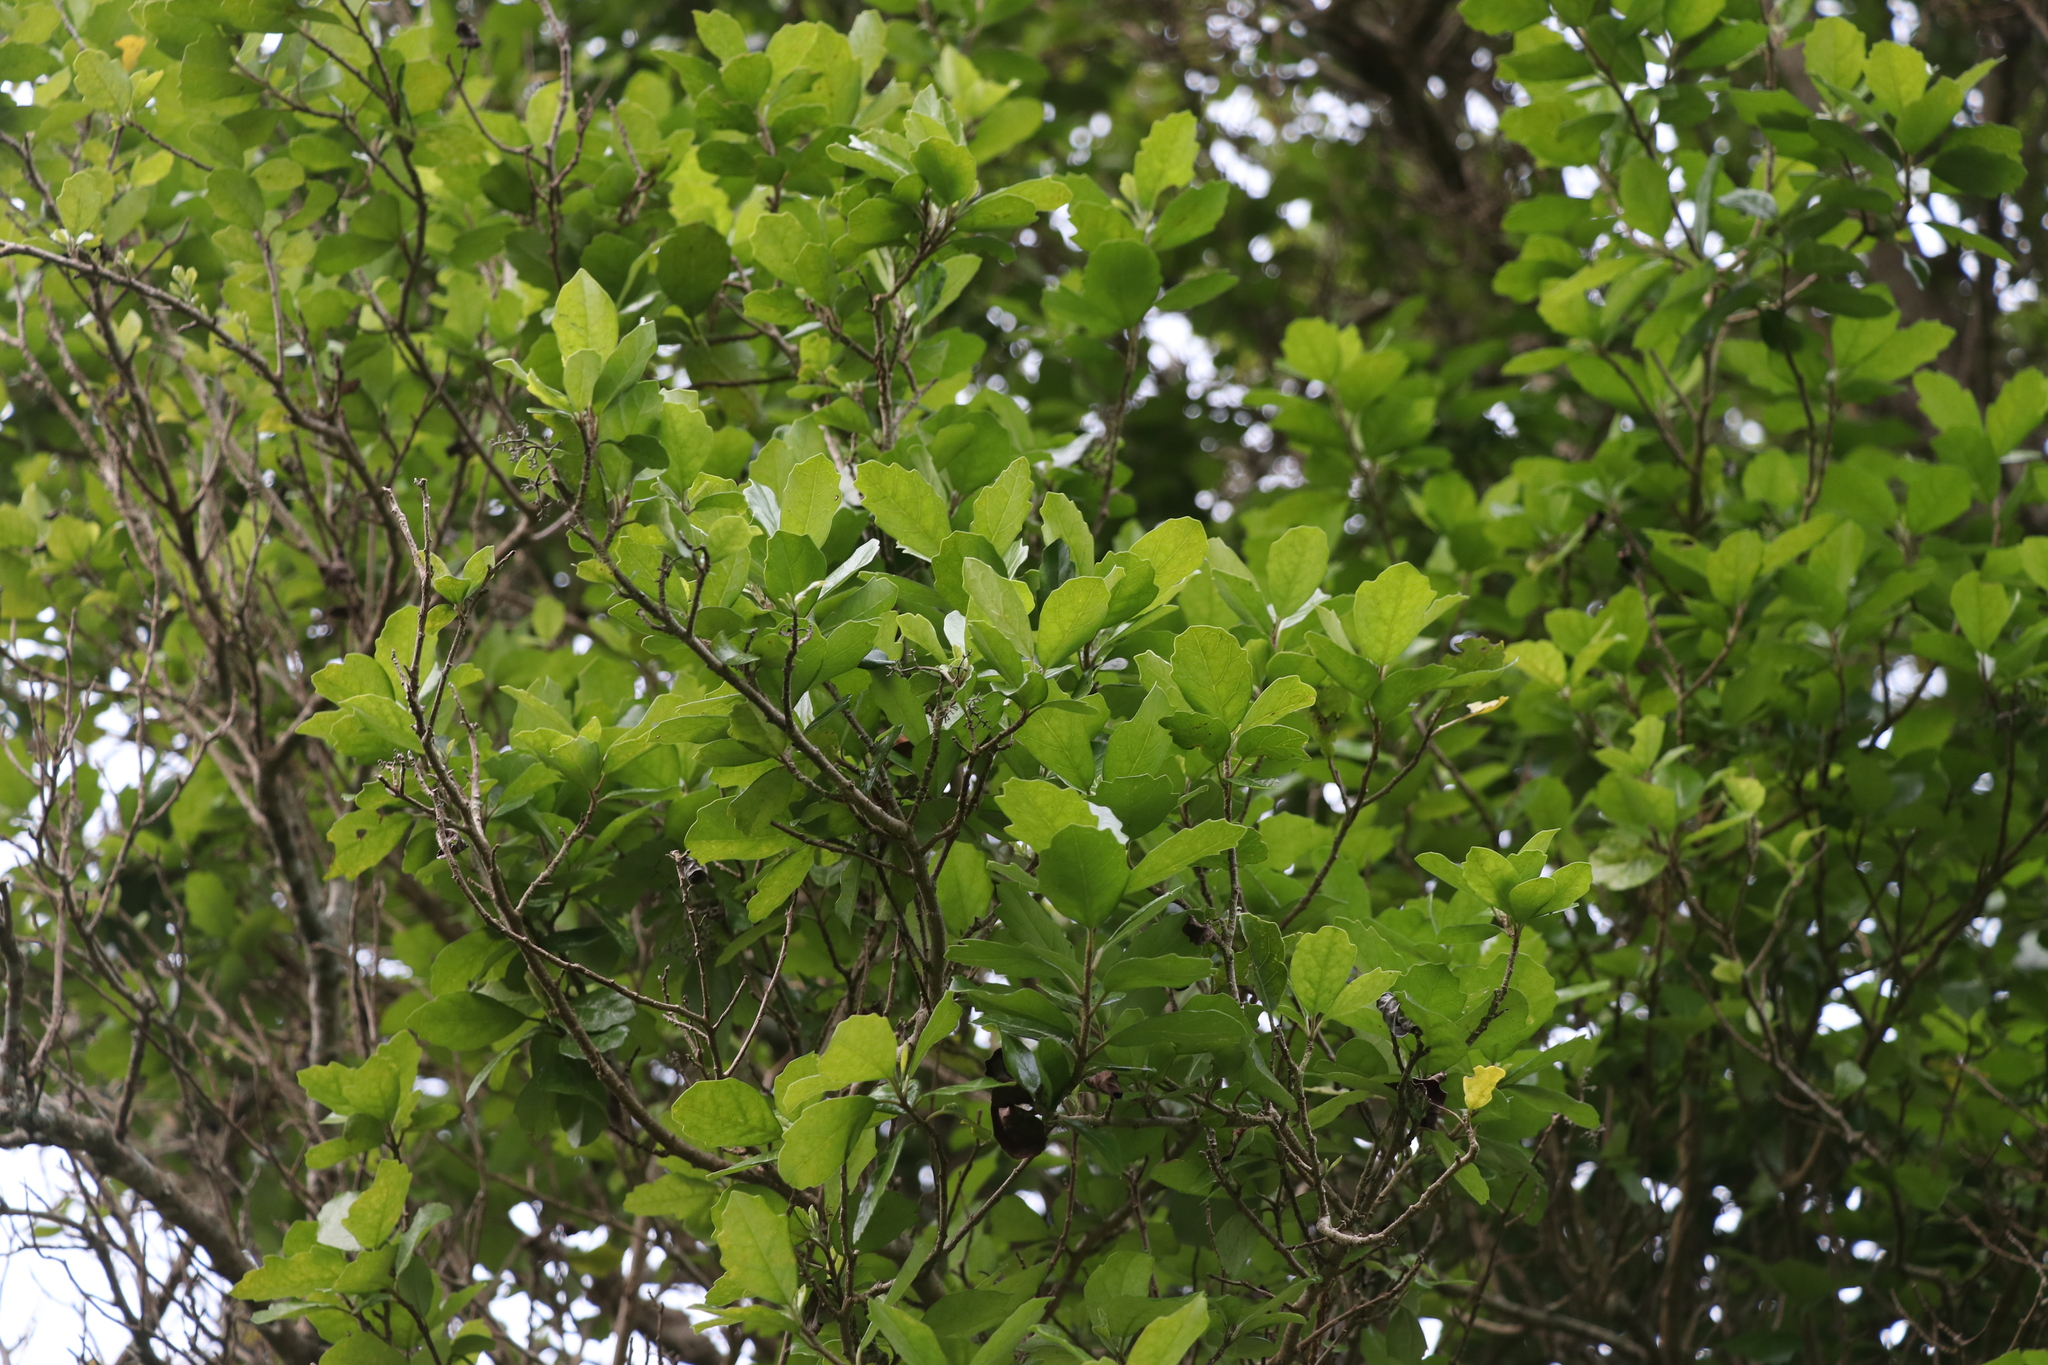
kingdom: Plantae
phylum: Tracheophyta
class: Magnoliopsida
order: Apiales
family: Pennantiaceae
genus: Pennantia
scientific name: Pennantia corymbosa
